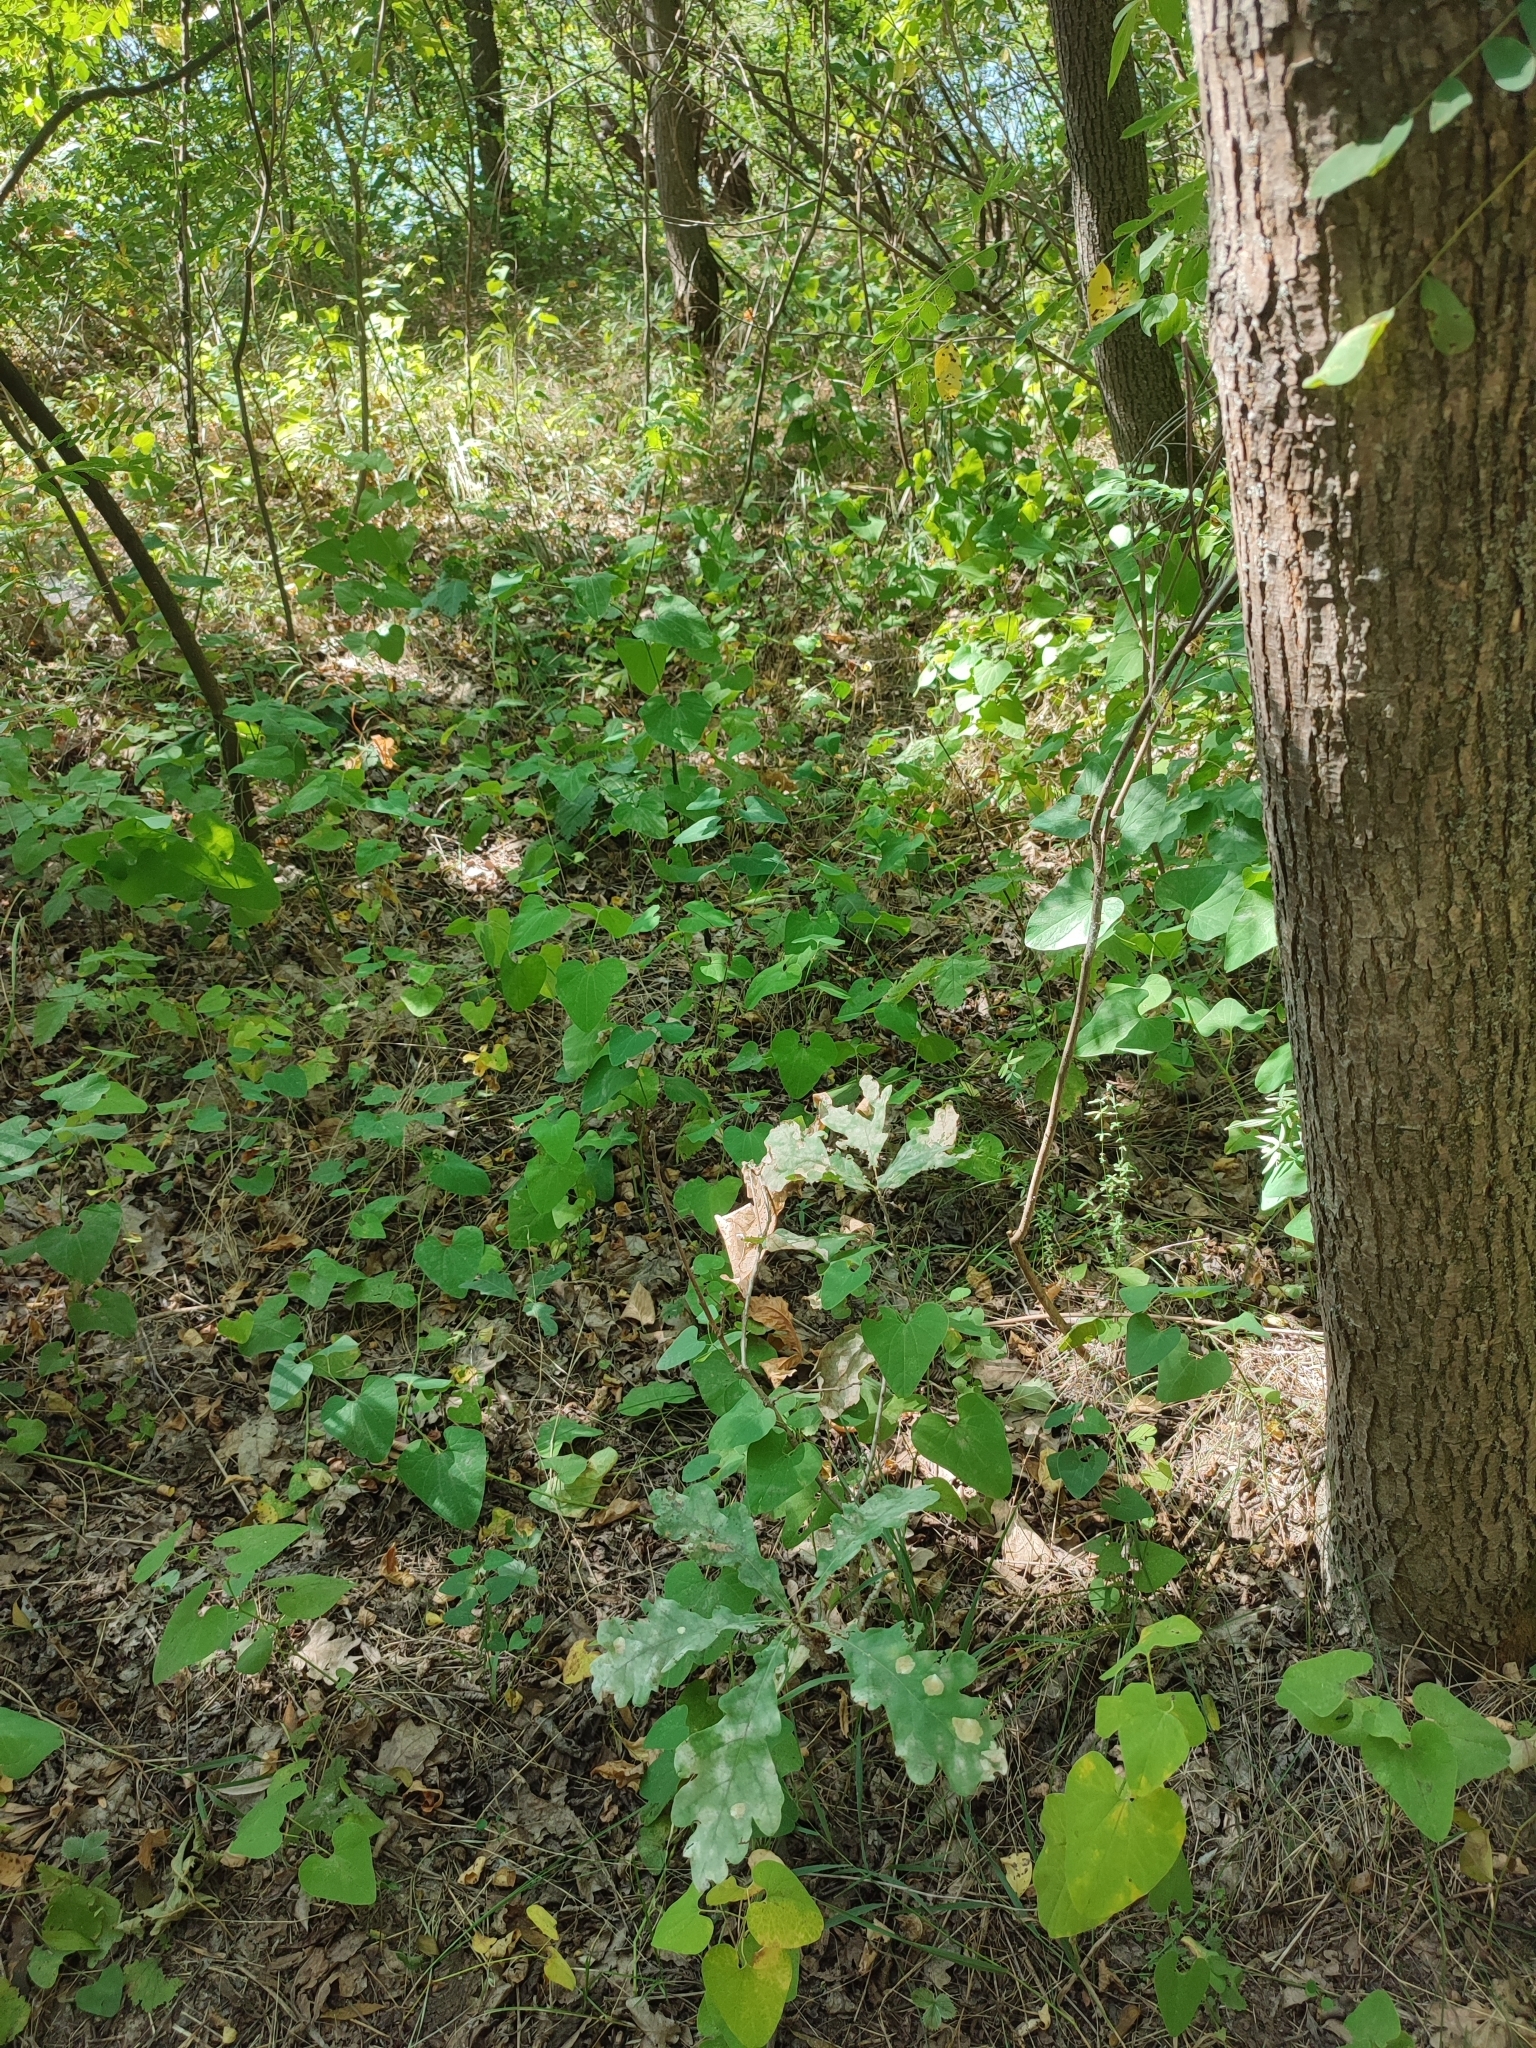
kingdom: Plantae
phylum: Tracheophyta
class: Magnoliopsida
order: Fagales
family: Fagaceae
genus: Quercus
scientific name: Quercus robur
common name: Pedunculate oak
